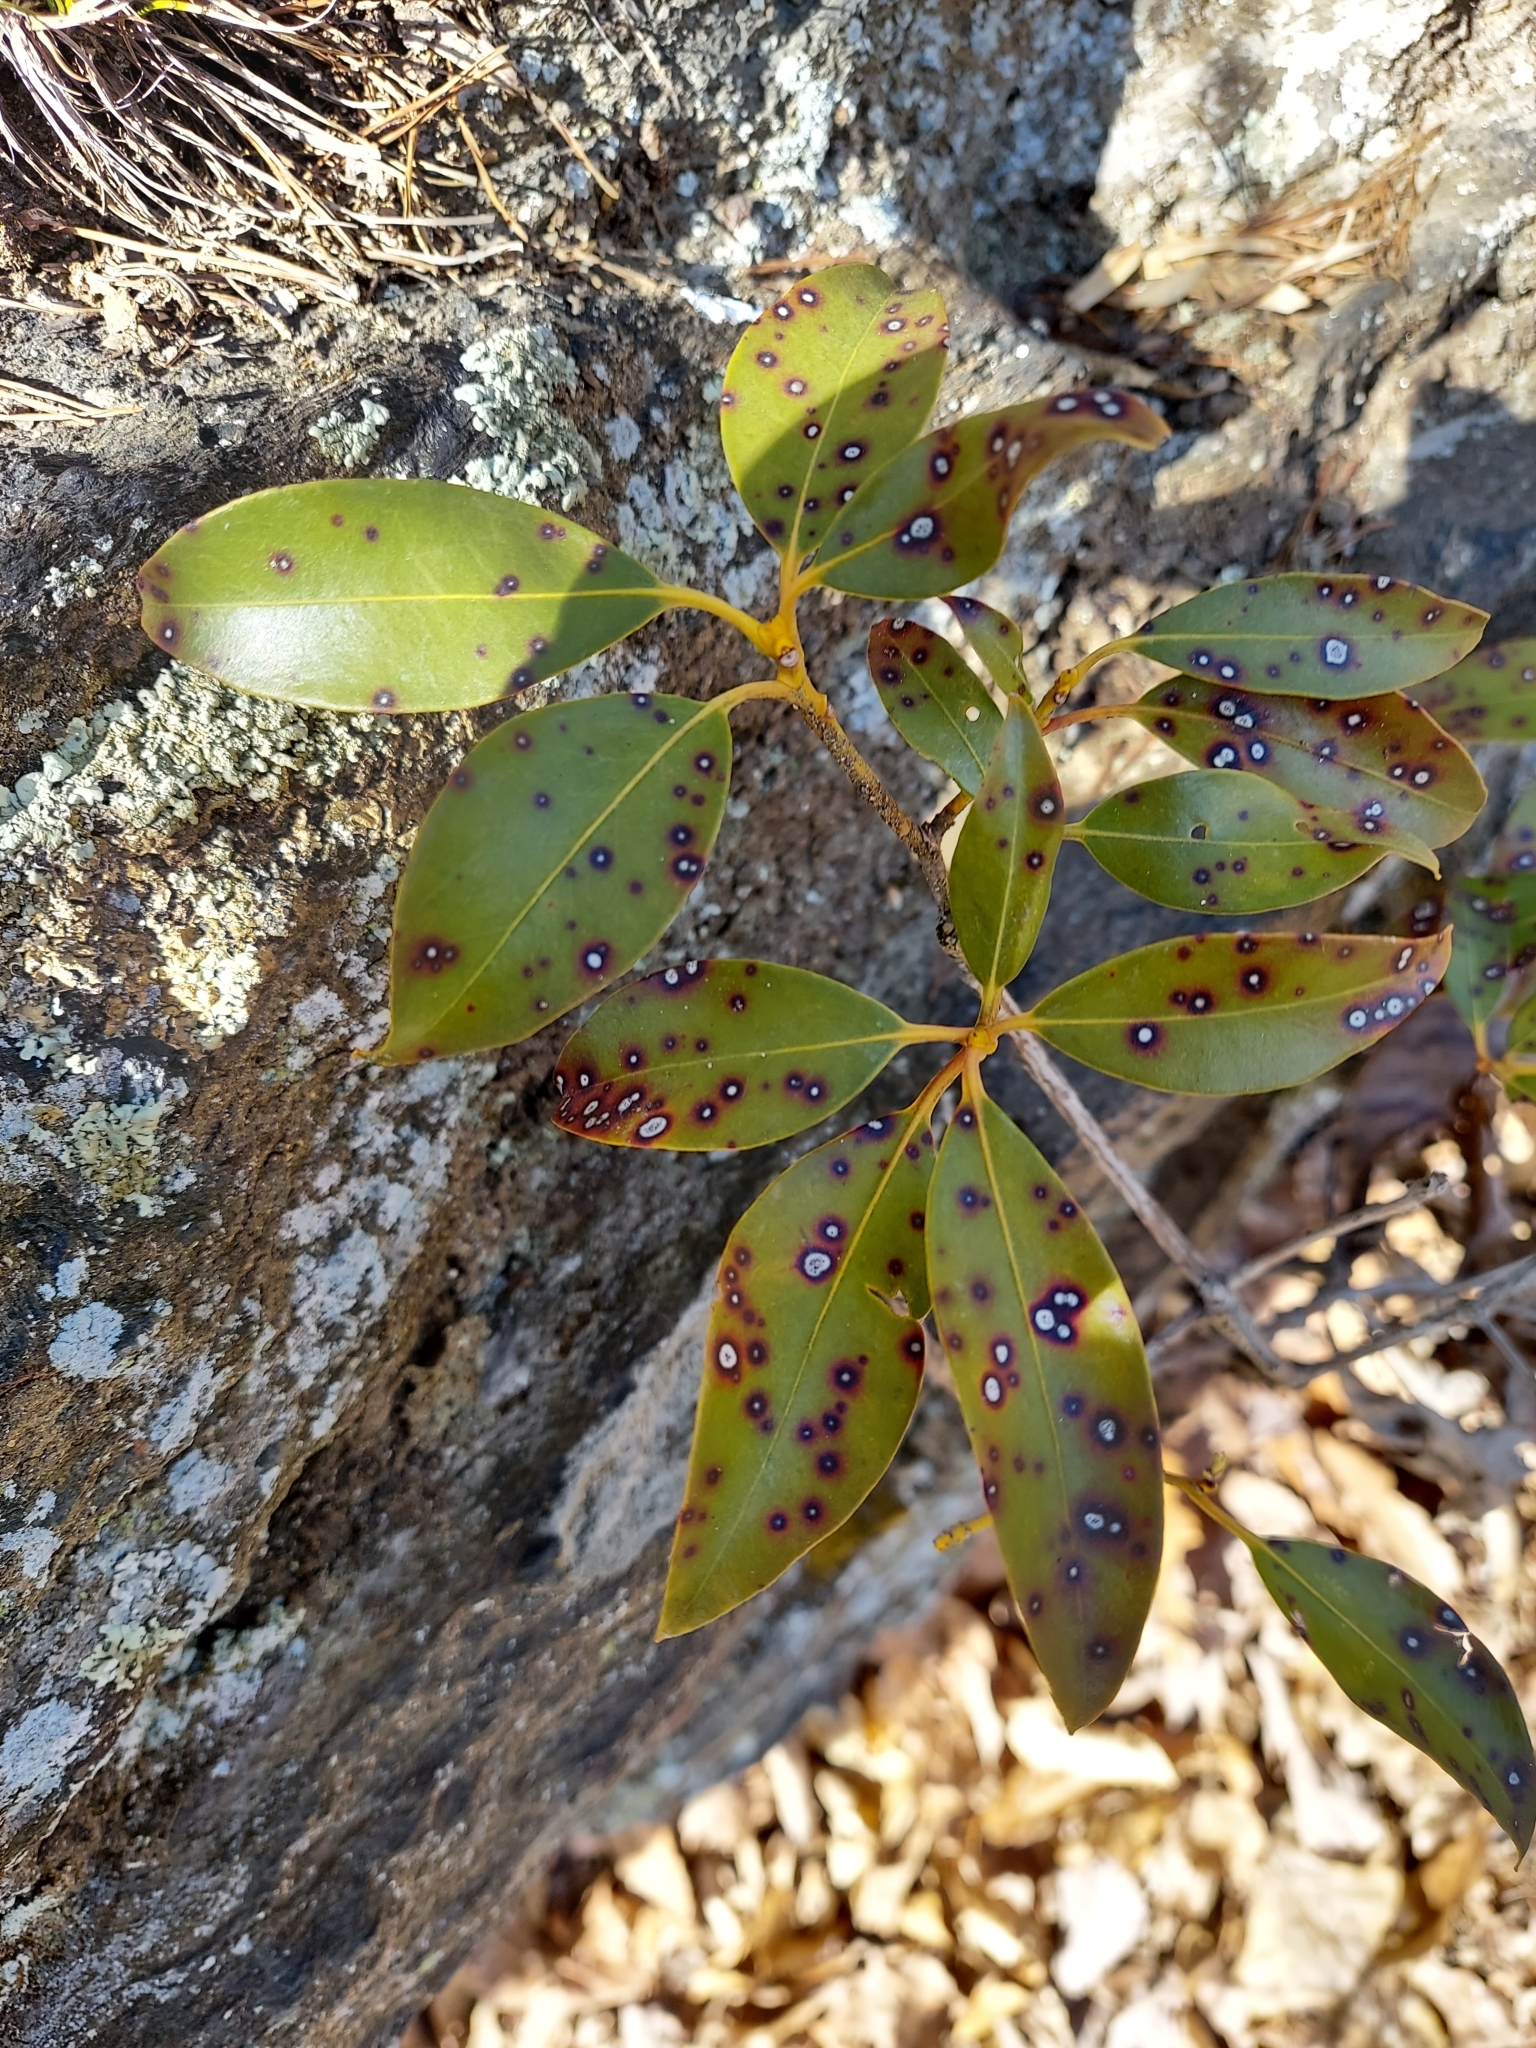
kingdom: Plantae
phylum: Tracheophyta
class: Magnoliopsida
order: Ericales
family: Ericaceae
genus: Kalmia
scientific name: Kalmia latifolia
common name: Mountain-laurel
